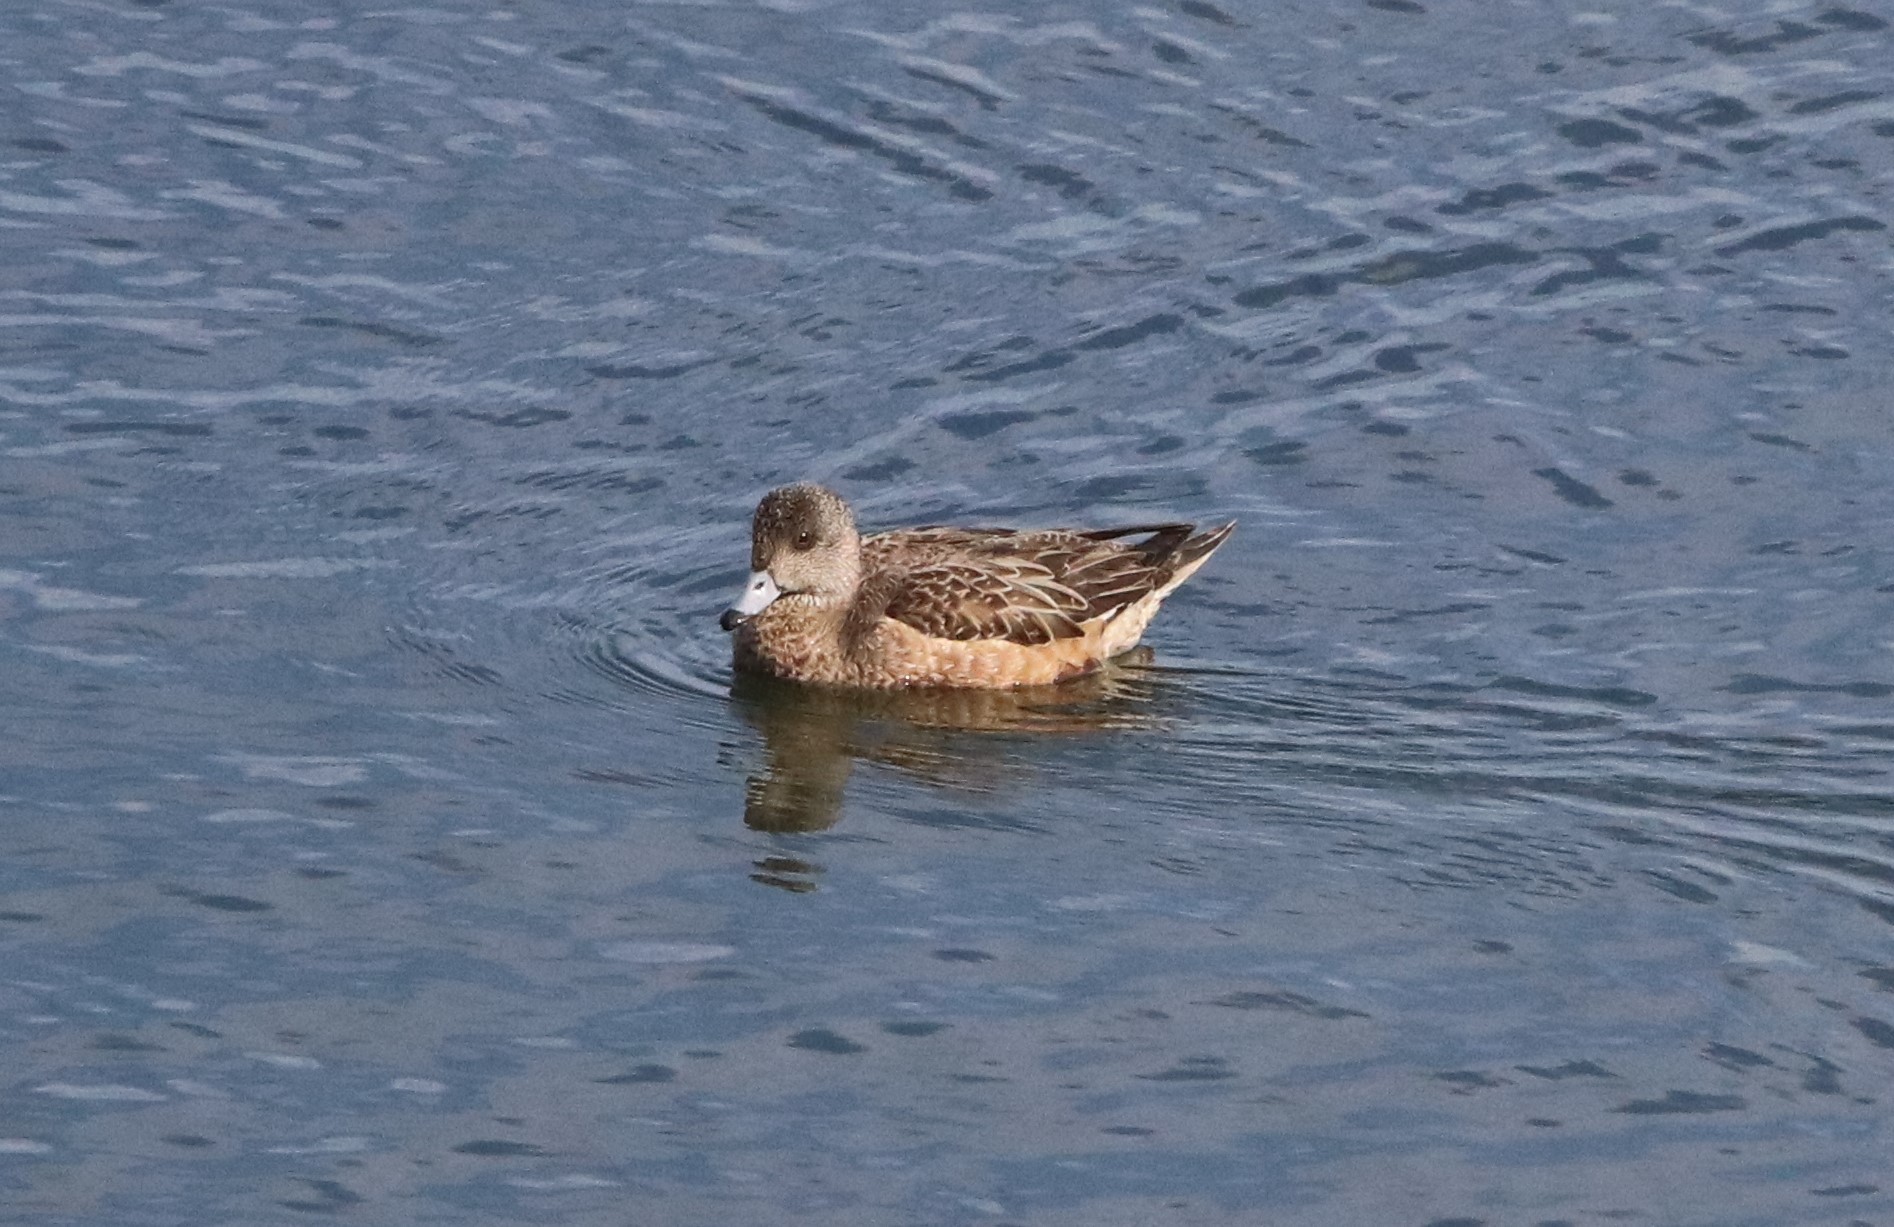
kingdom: Animalia
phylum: Chordata
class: Aves
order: Anseriformes
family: Anatidae
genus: Mareca
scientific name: Mareca americana
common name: American wigeon
